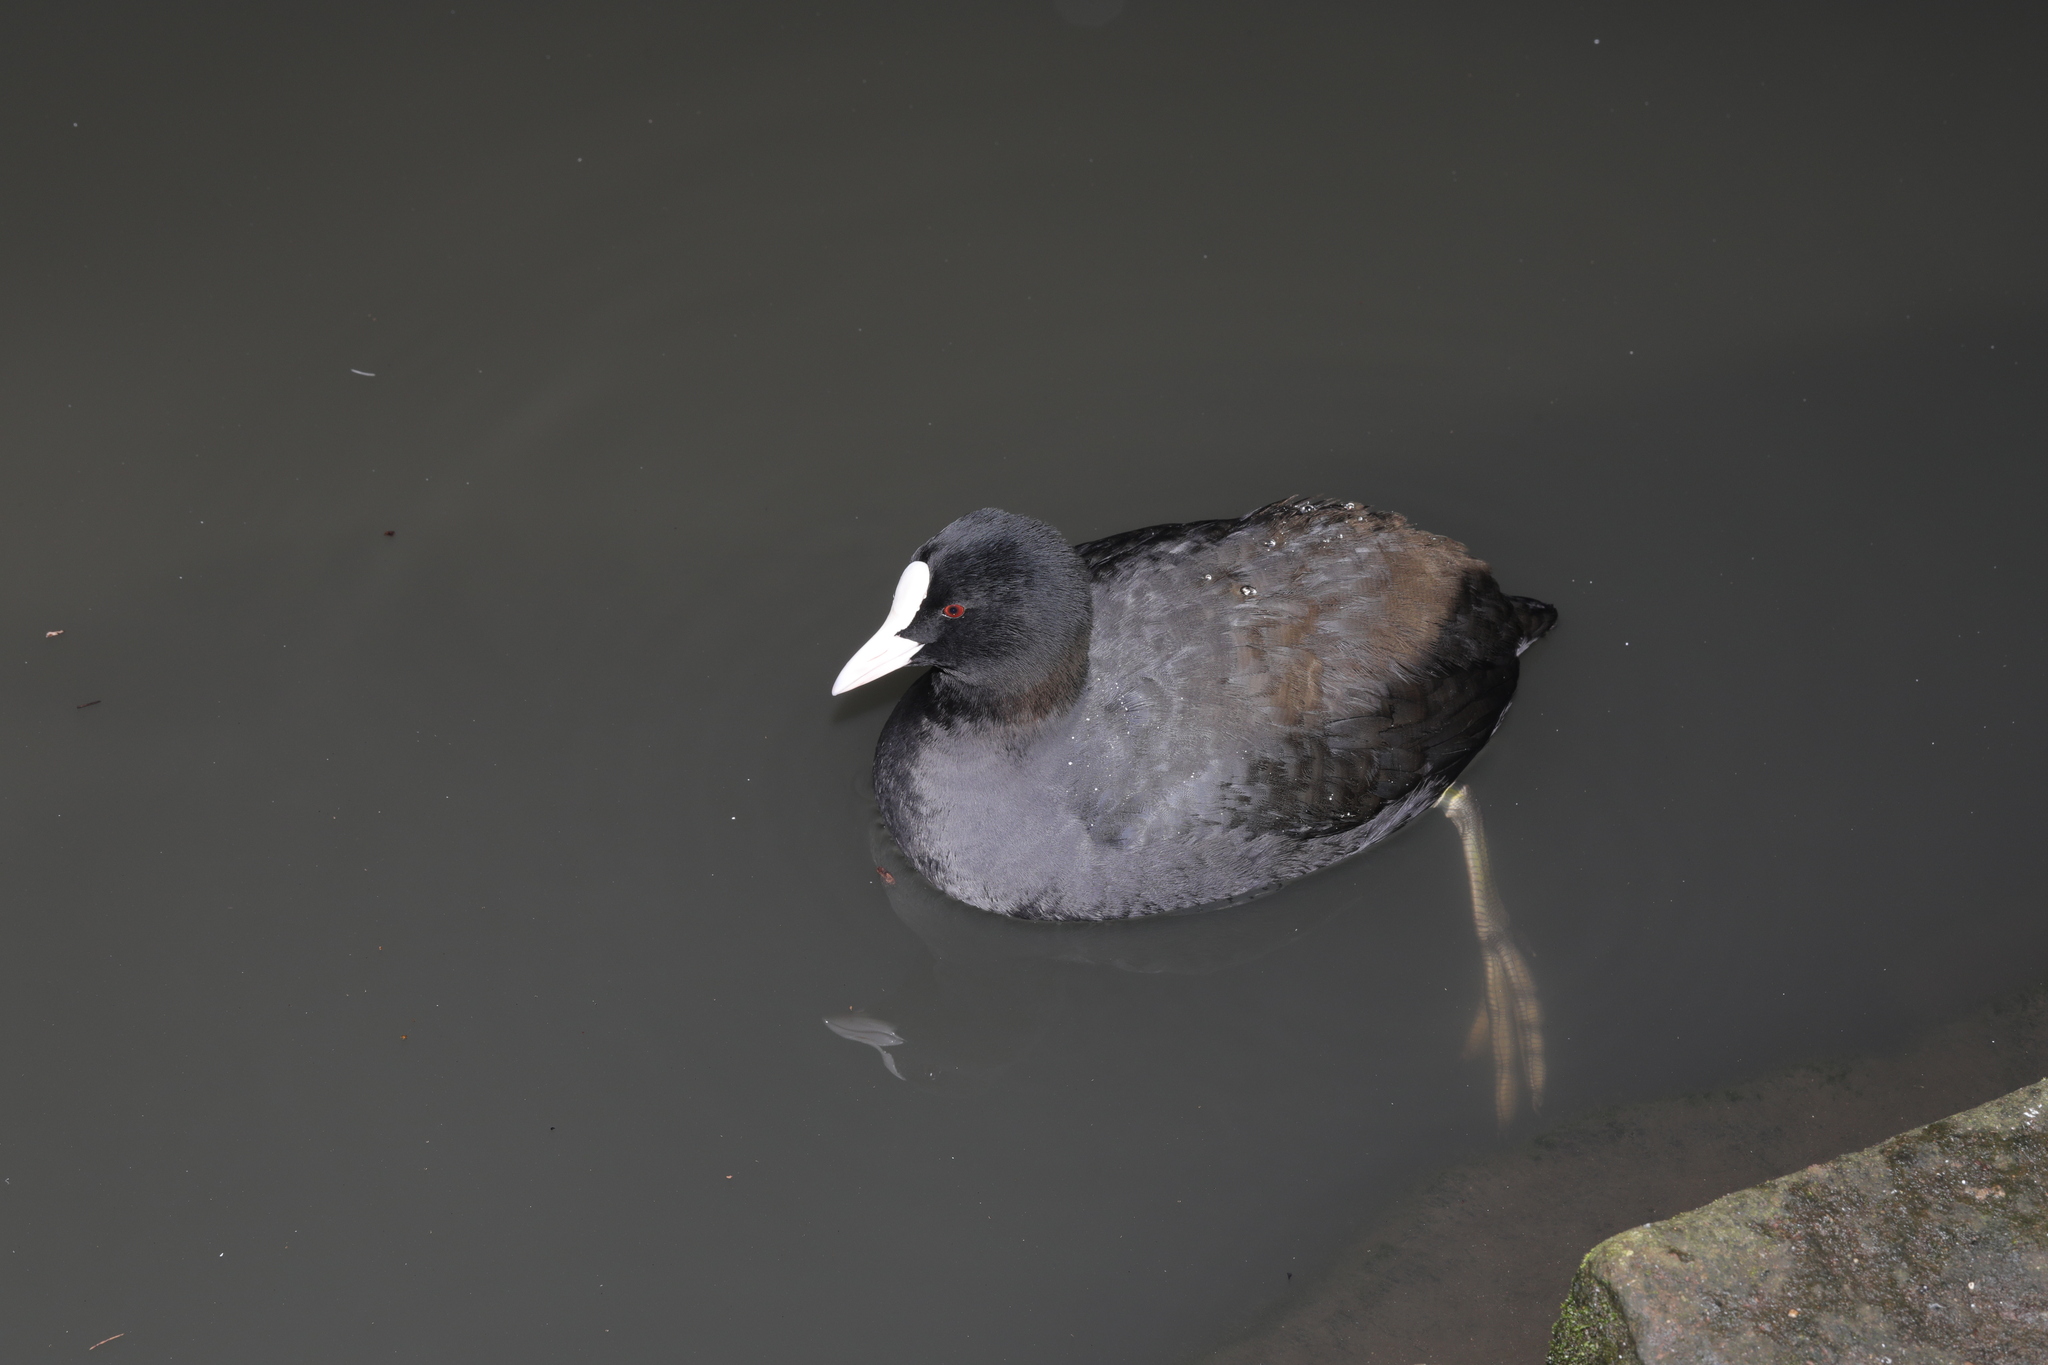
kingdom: Animalia
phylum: Chordata
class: Aves
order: Gruiformes
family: Rallidae
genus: Fulica
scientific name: Fulica atra
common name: Eurasian coot
